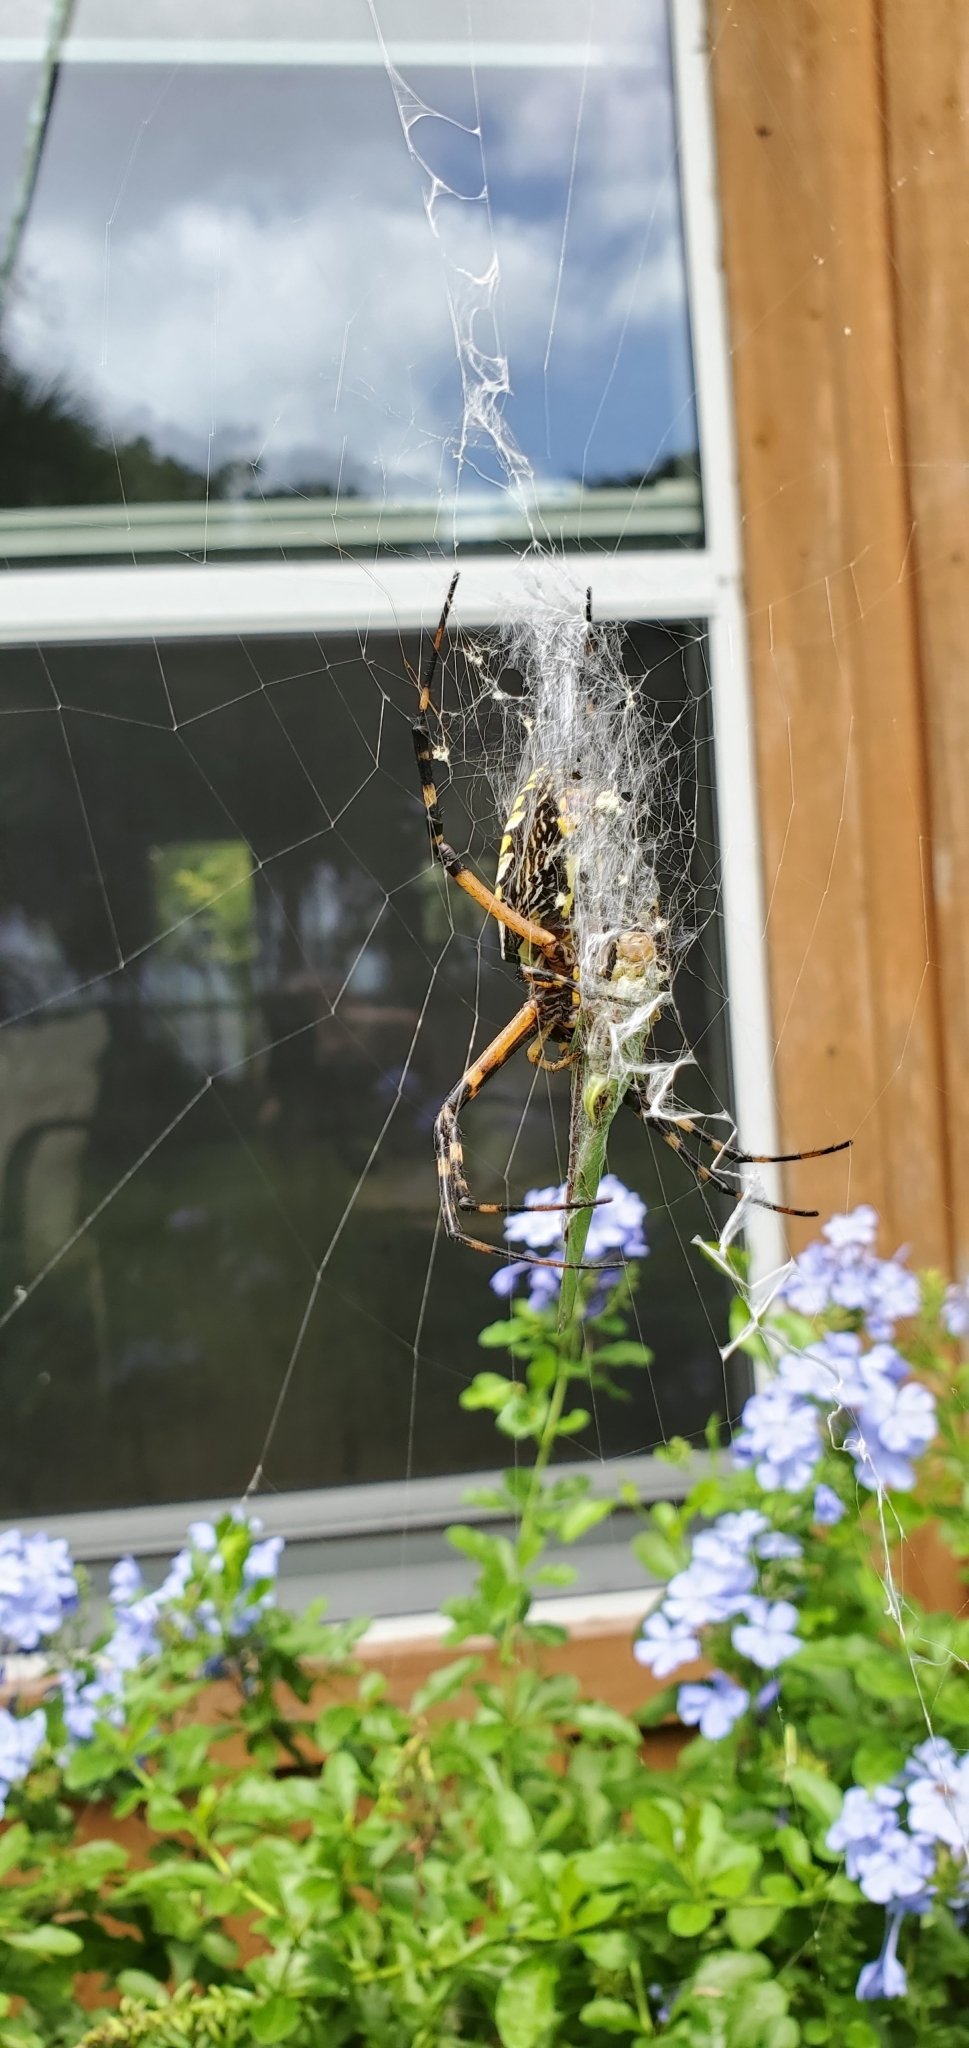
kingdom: Animalia
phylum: Arthropoda
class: Arachnida
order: Araneae
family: Araneidae
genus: Argiope
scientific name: Argiope aurantia
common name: Orb weavers
